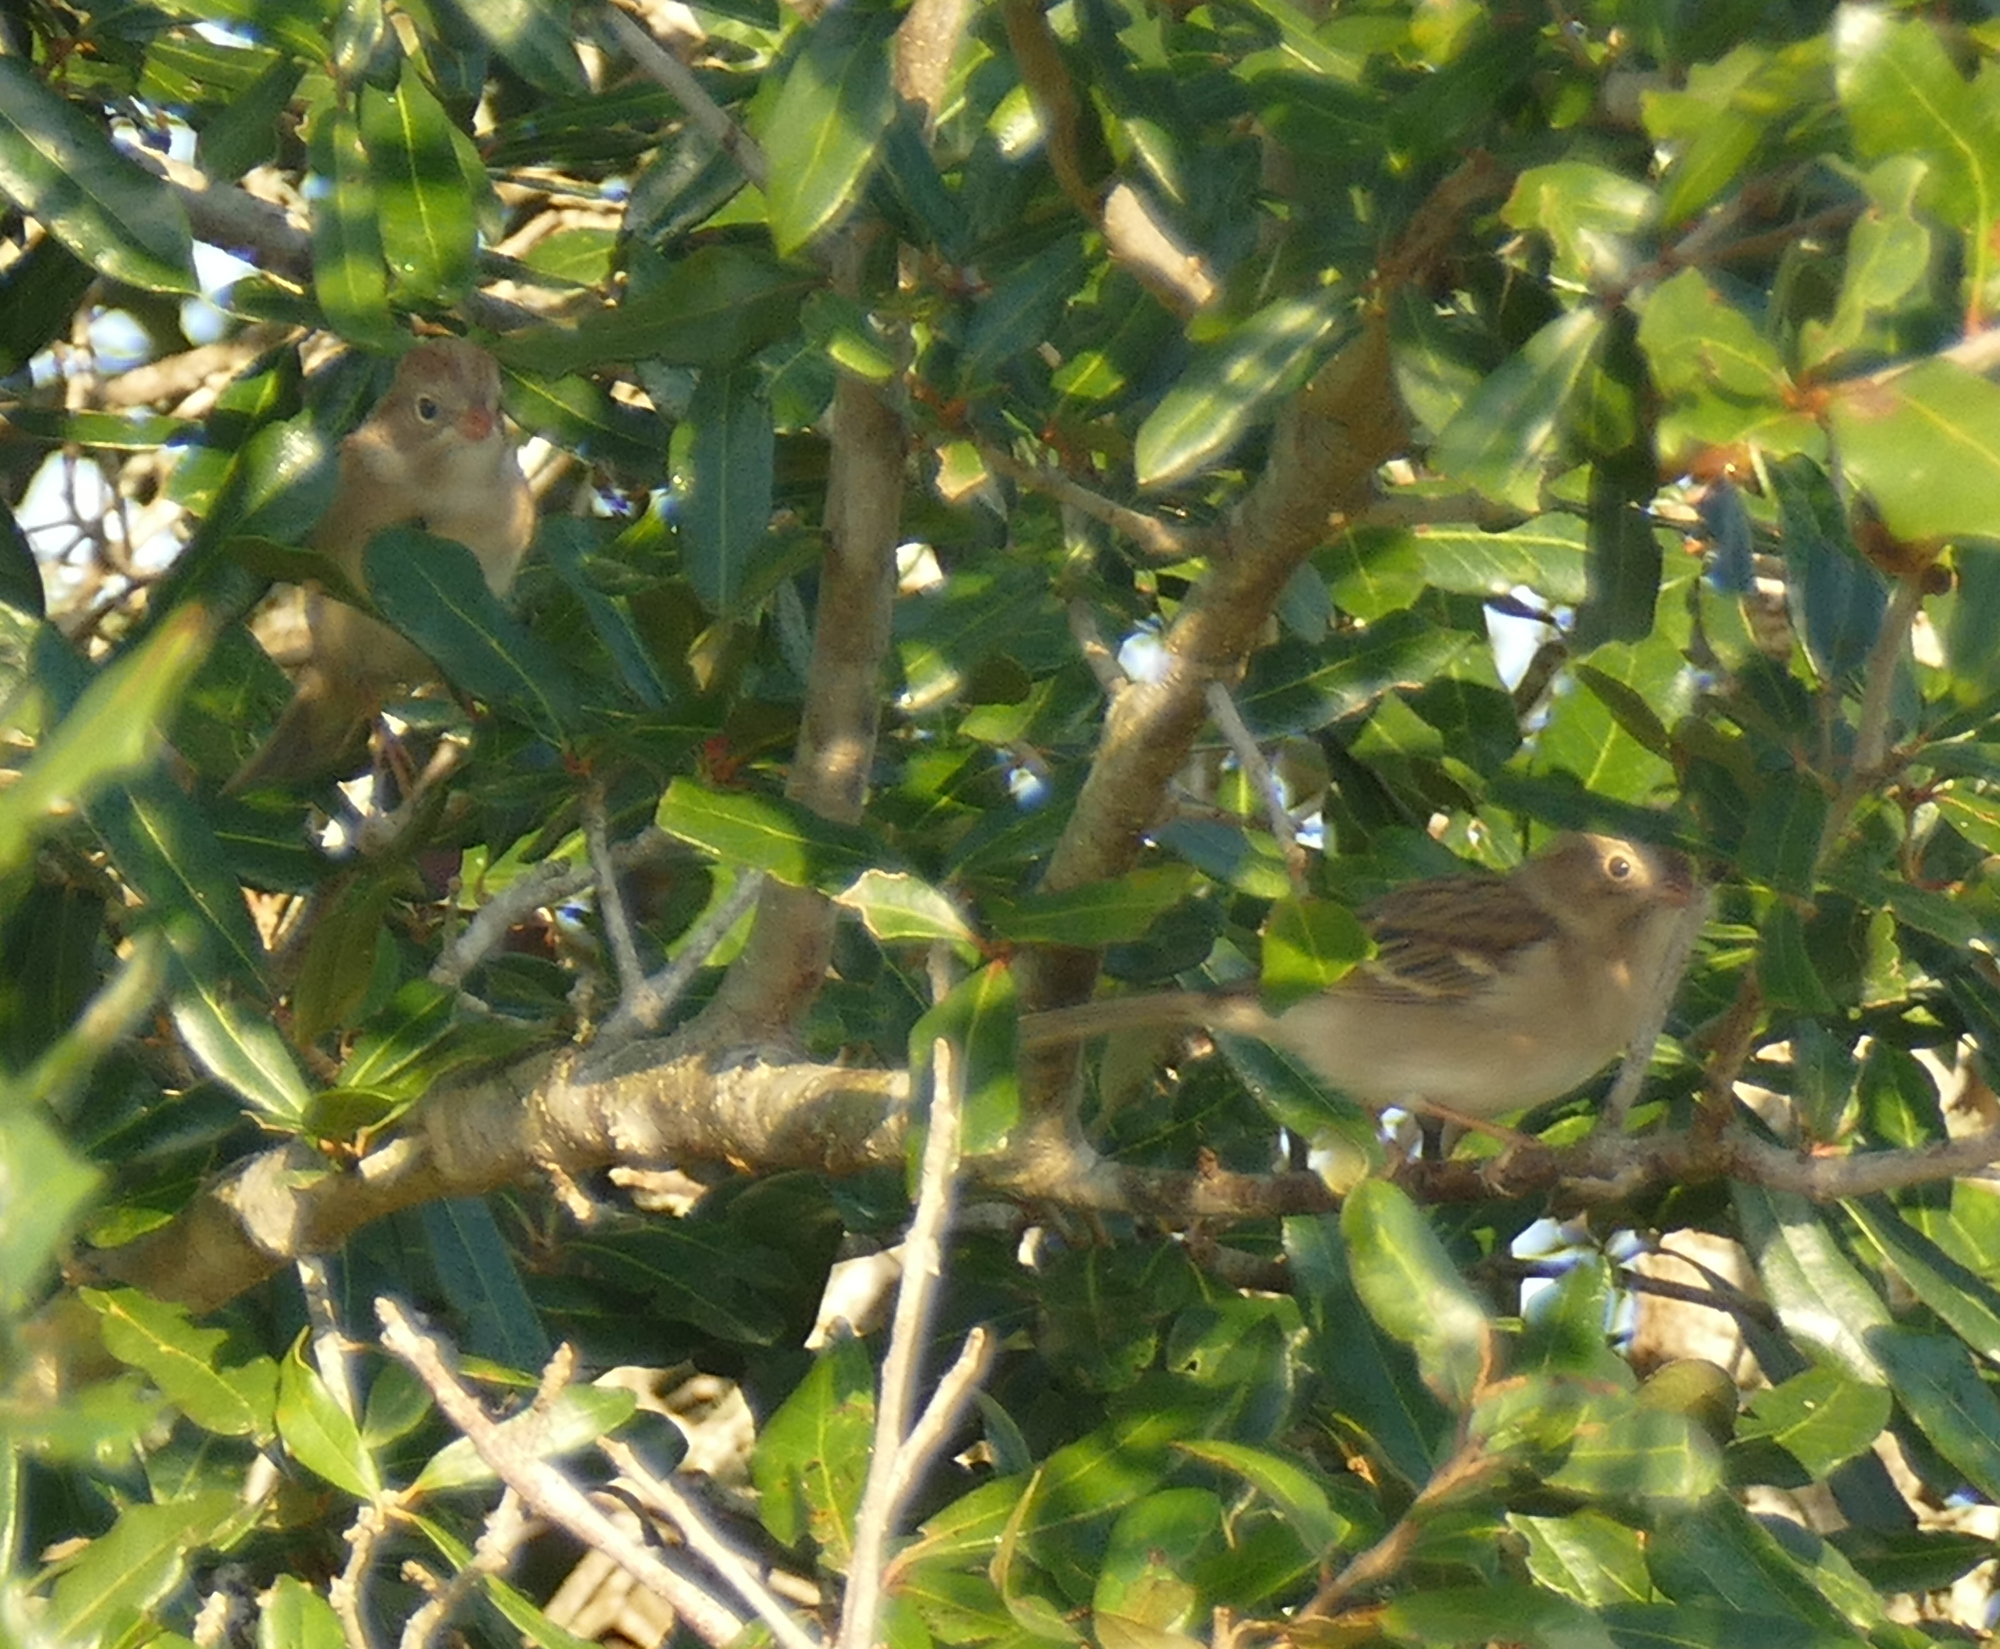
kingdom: Animalia
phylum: Chordata
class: Aves
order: Passeriformes
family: Passerellidae
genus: Spizella
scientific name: Spizella pusilla
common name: Field sparrow
